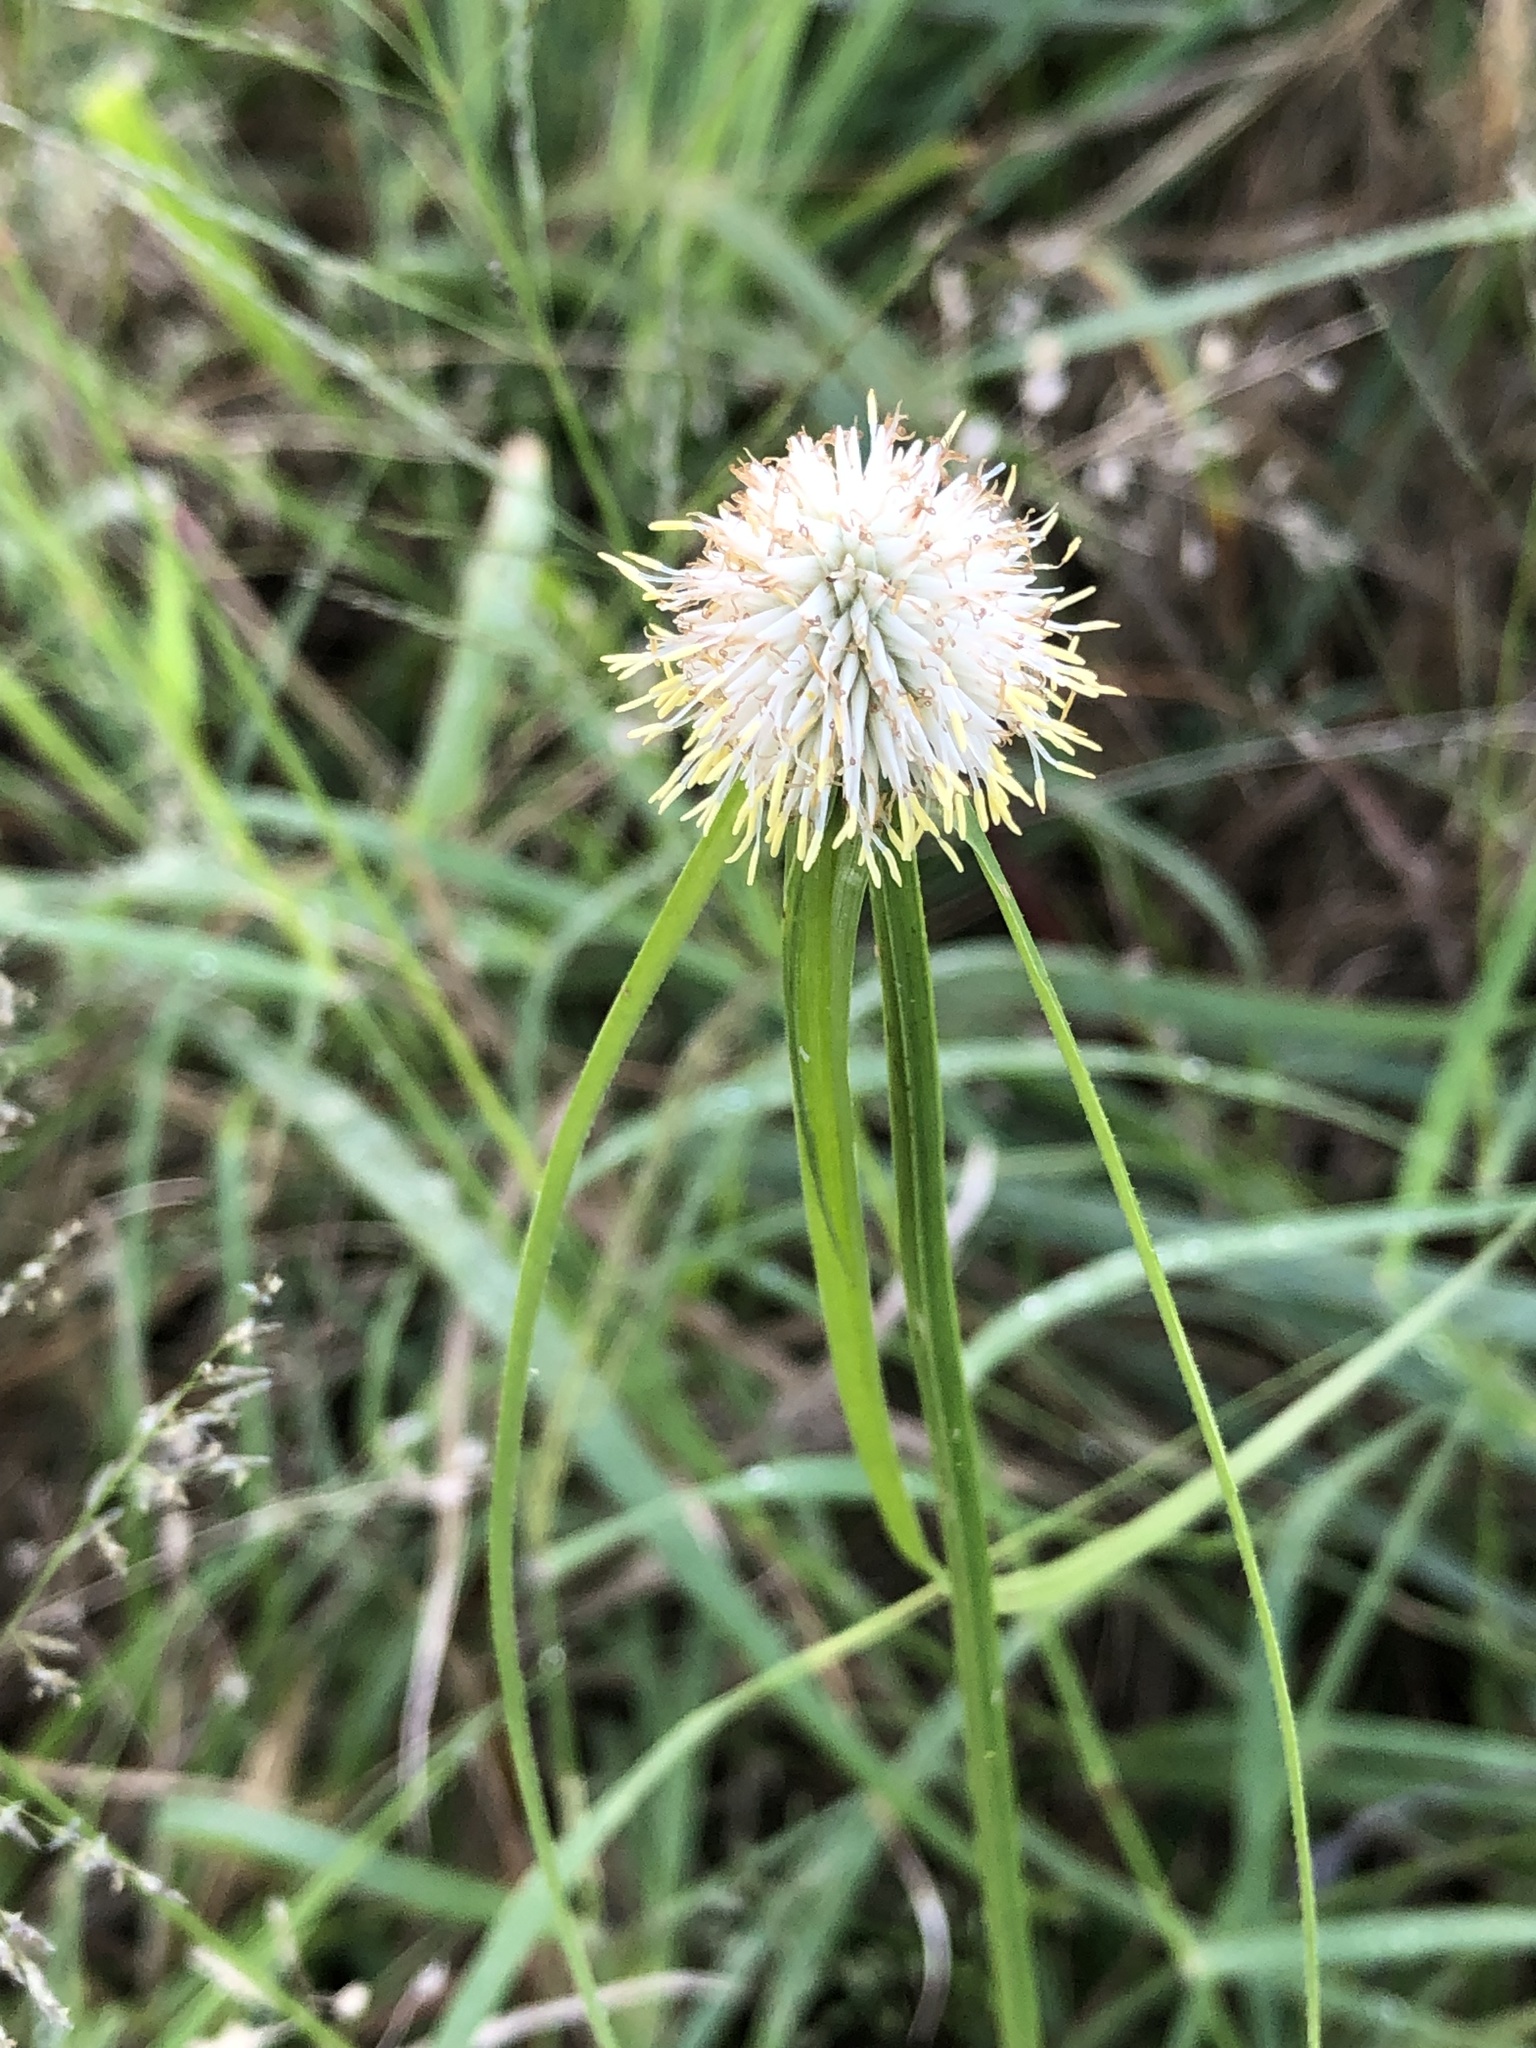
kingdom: Plantae
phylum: Tracheophyta
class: Liliopsida
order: Poales
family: Cyperaceae
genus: Cyperus
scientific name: Cyperus alatus
